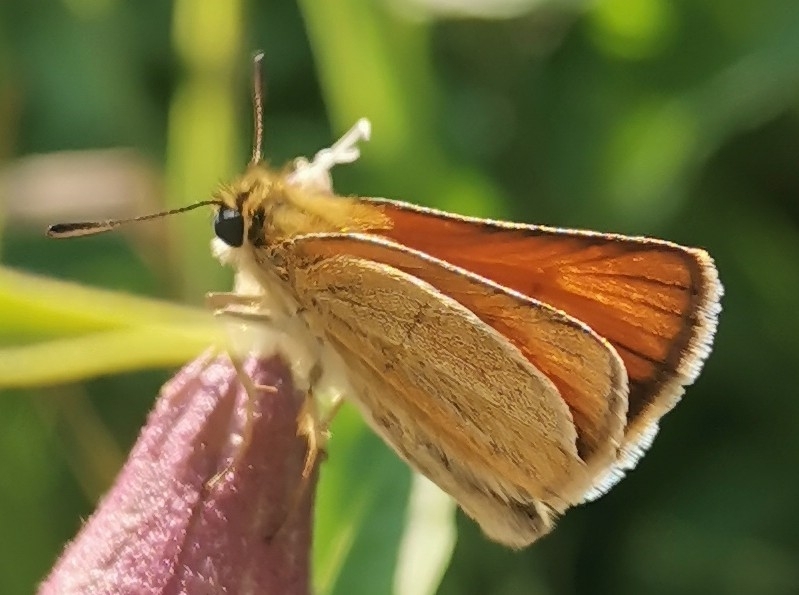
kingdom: Animalia
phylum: Arthropoda
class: Insecta
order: Lepidoptera
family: Hesperiidae
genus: Thymelicus
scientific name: Thymelicus lineola
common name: Essex skipper
